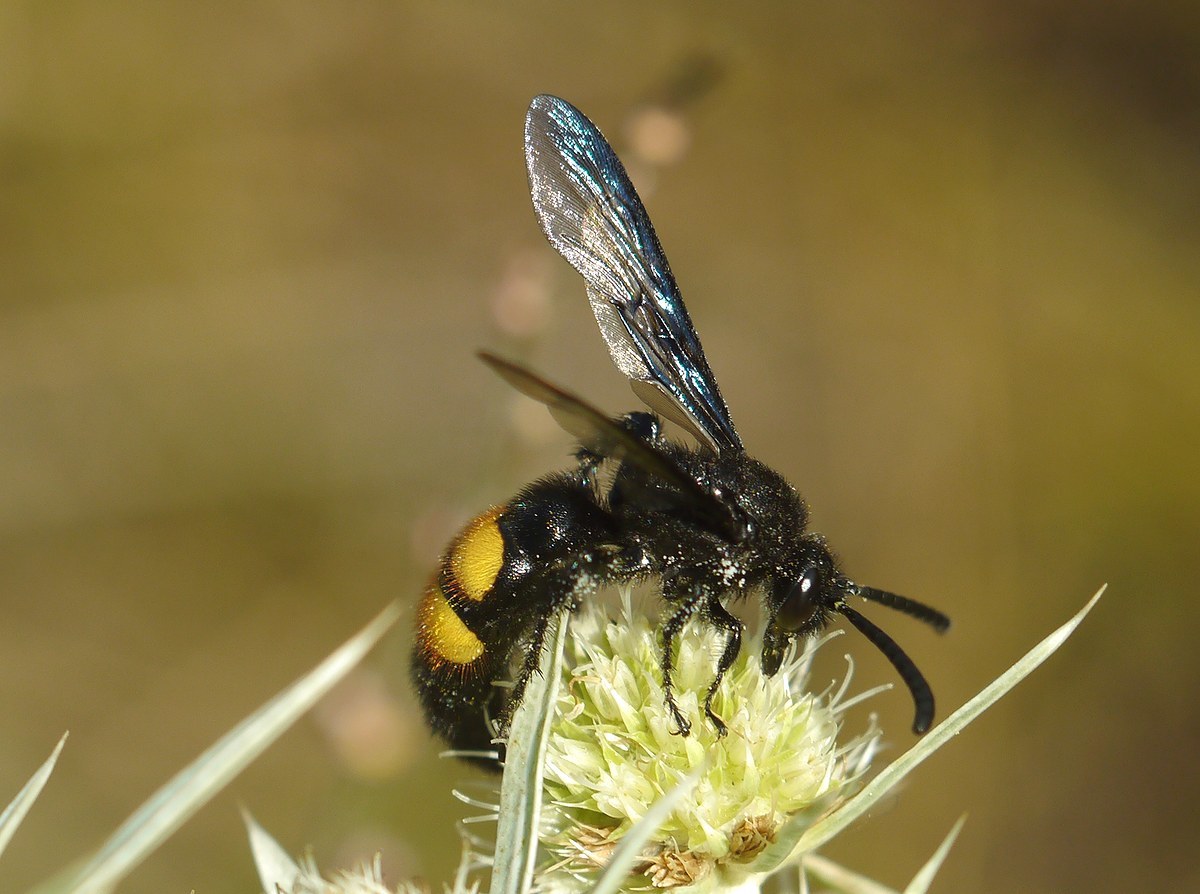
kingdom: Animalia
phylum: Arthropoda
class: Insecta
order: Hymenoptera
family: Scoliidae
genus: Scolia
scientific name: Scolia hirta
